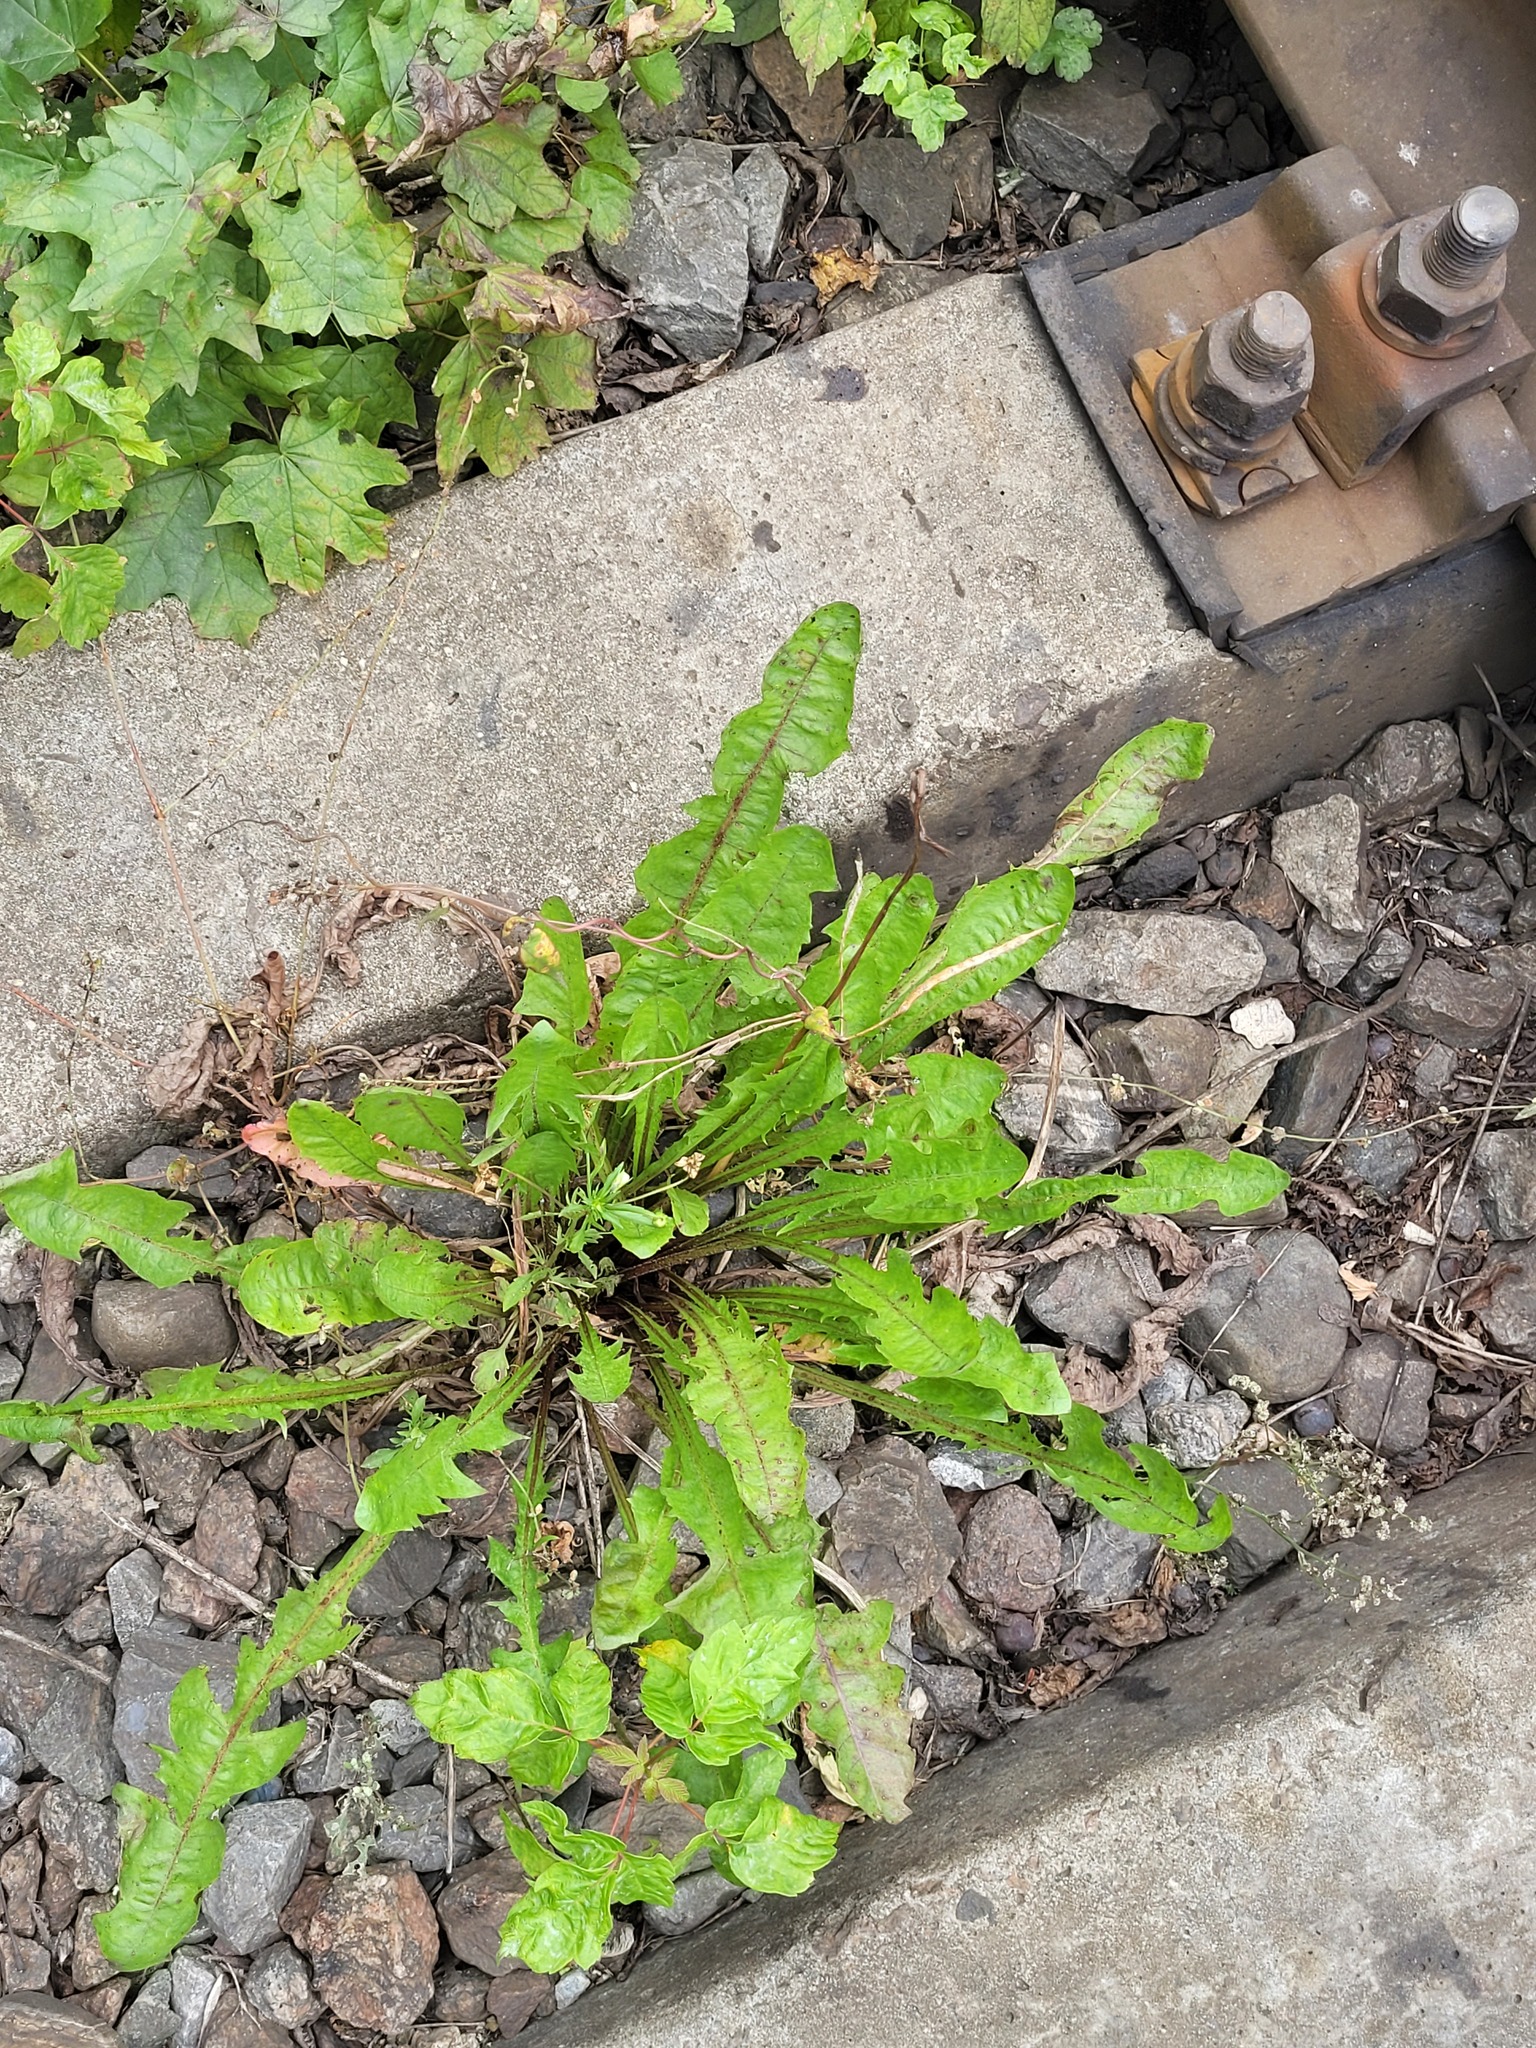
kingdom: Plantae
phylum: Tracheophyta
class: Magnoliopsida
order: Asterales
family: Asteraceae
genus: Taraxacum
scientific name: Taraxacum officinale
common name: Common dandelion
